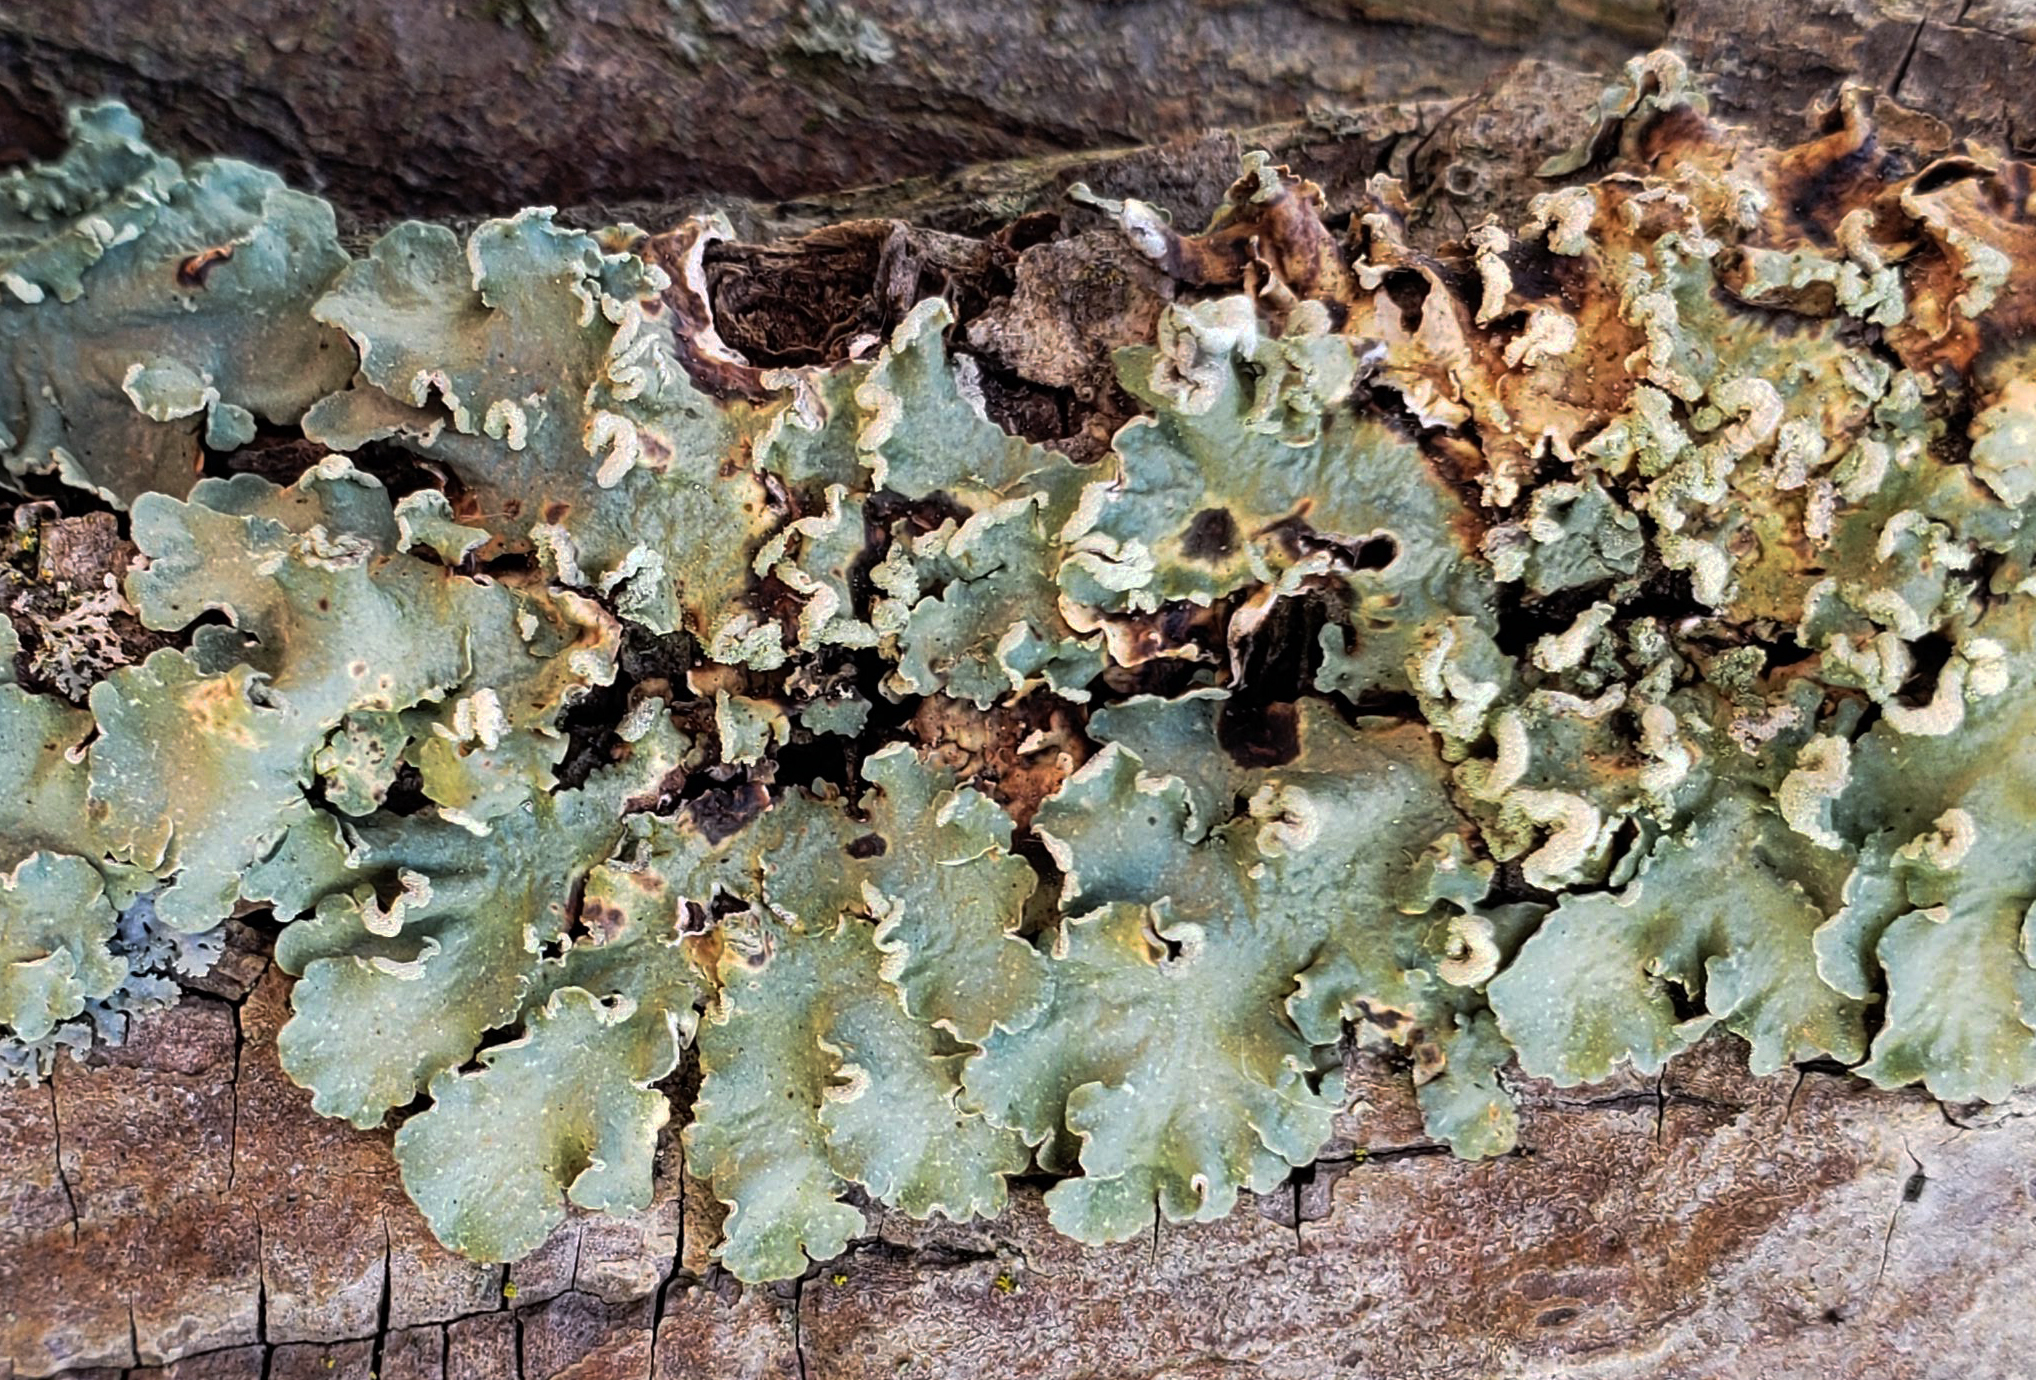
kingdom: Fungi
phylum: Ascomycota
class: Lecanoromycetes
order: Lecanorales
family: Parmeliaceae
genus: Flavopunctelia
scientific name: Flavopunctelia soredica
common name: Powder-edged speckled greenshield
